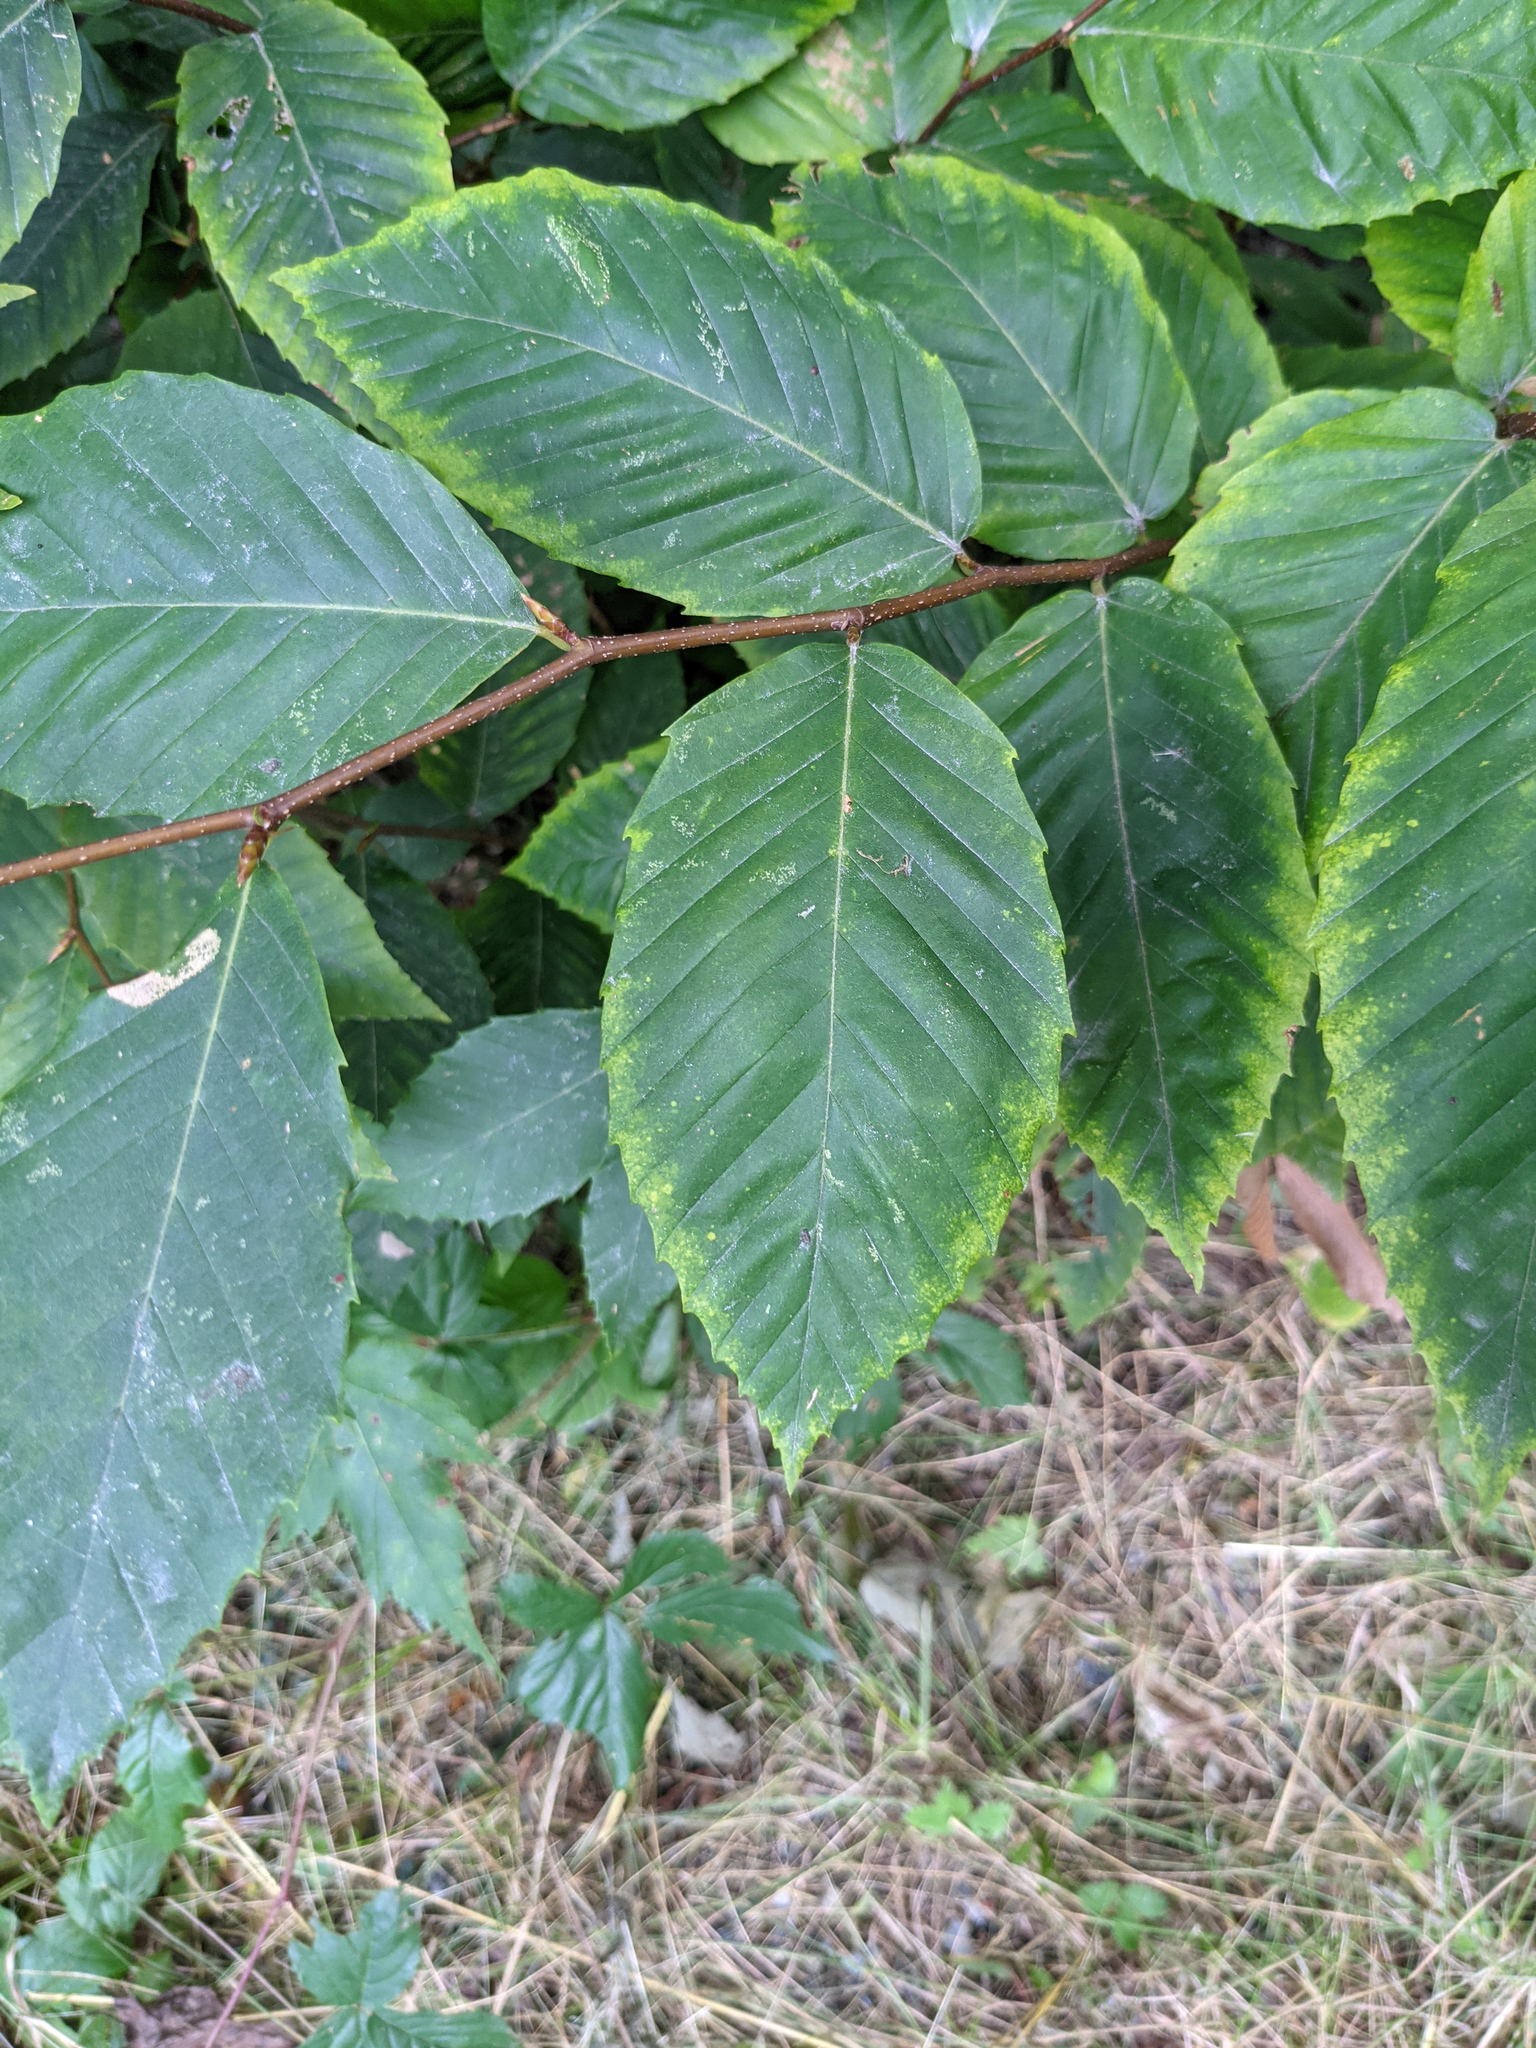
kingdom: Plantae
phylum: Tracheophyta
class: Magnoliopsida
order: Fagales
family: Fagaceae
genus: Fagus
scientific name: Fagus grandifolia
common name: American beech
